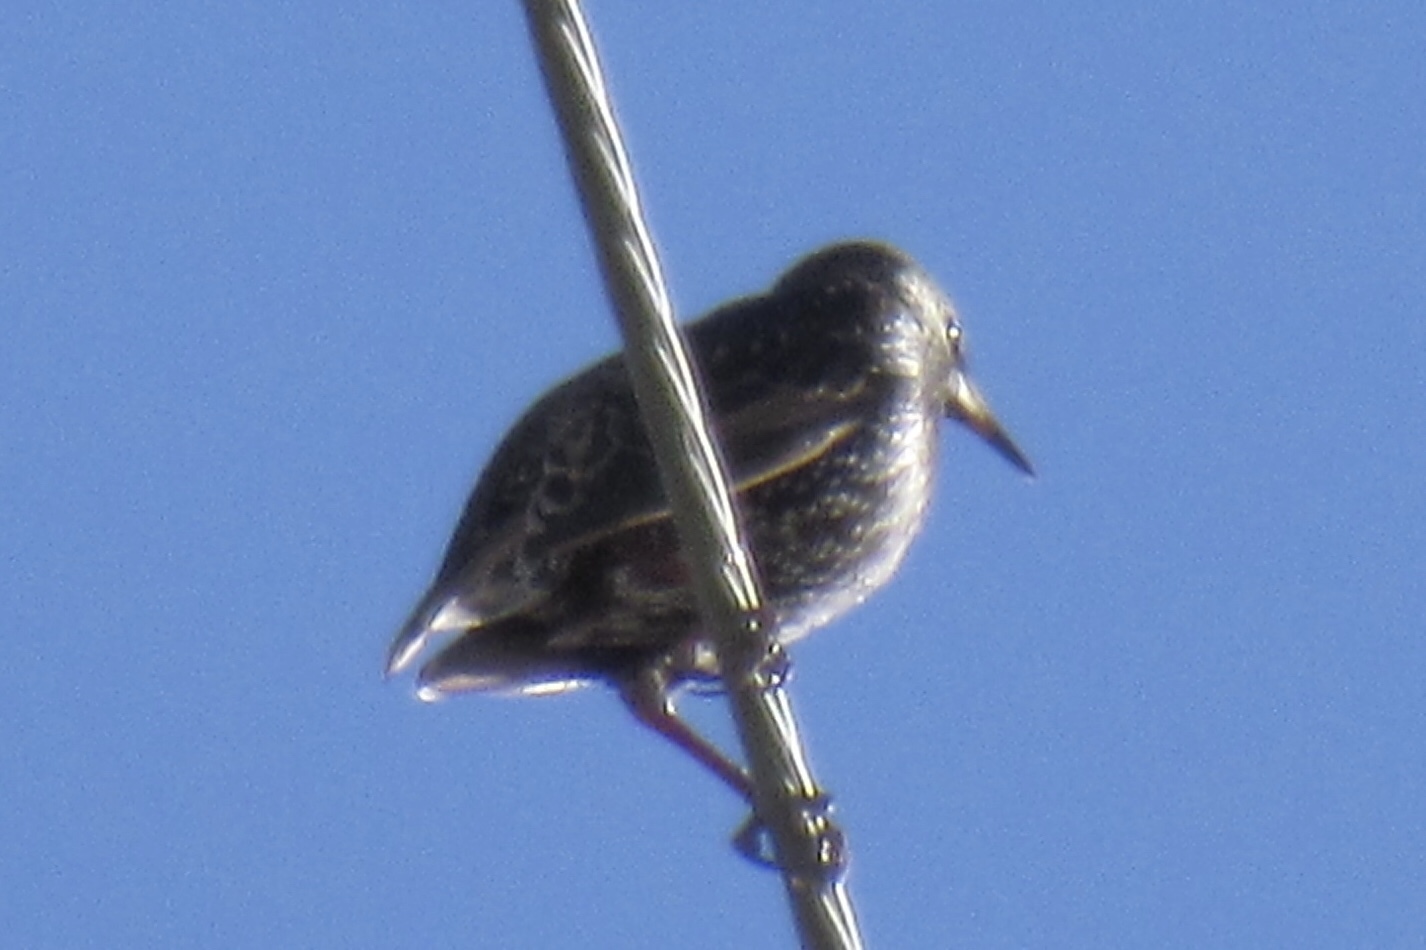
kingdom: Animalia
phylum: Chordata
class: Aves
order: Passeriformes
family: Sturnidae
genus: Sturnus
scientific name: Sturnus vulgaris
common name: Common starling
